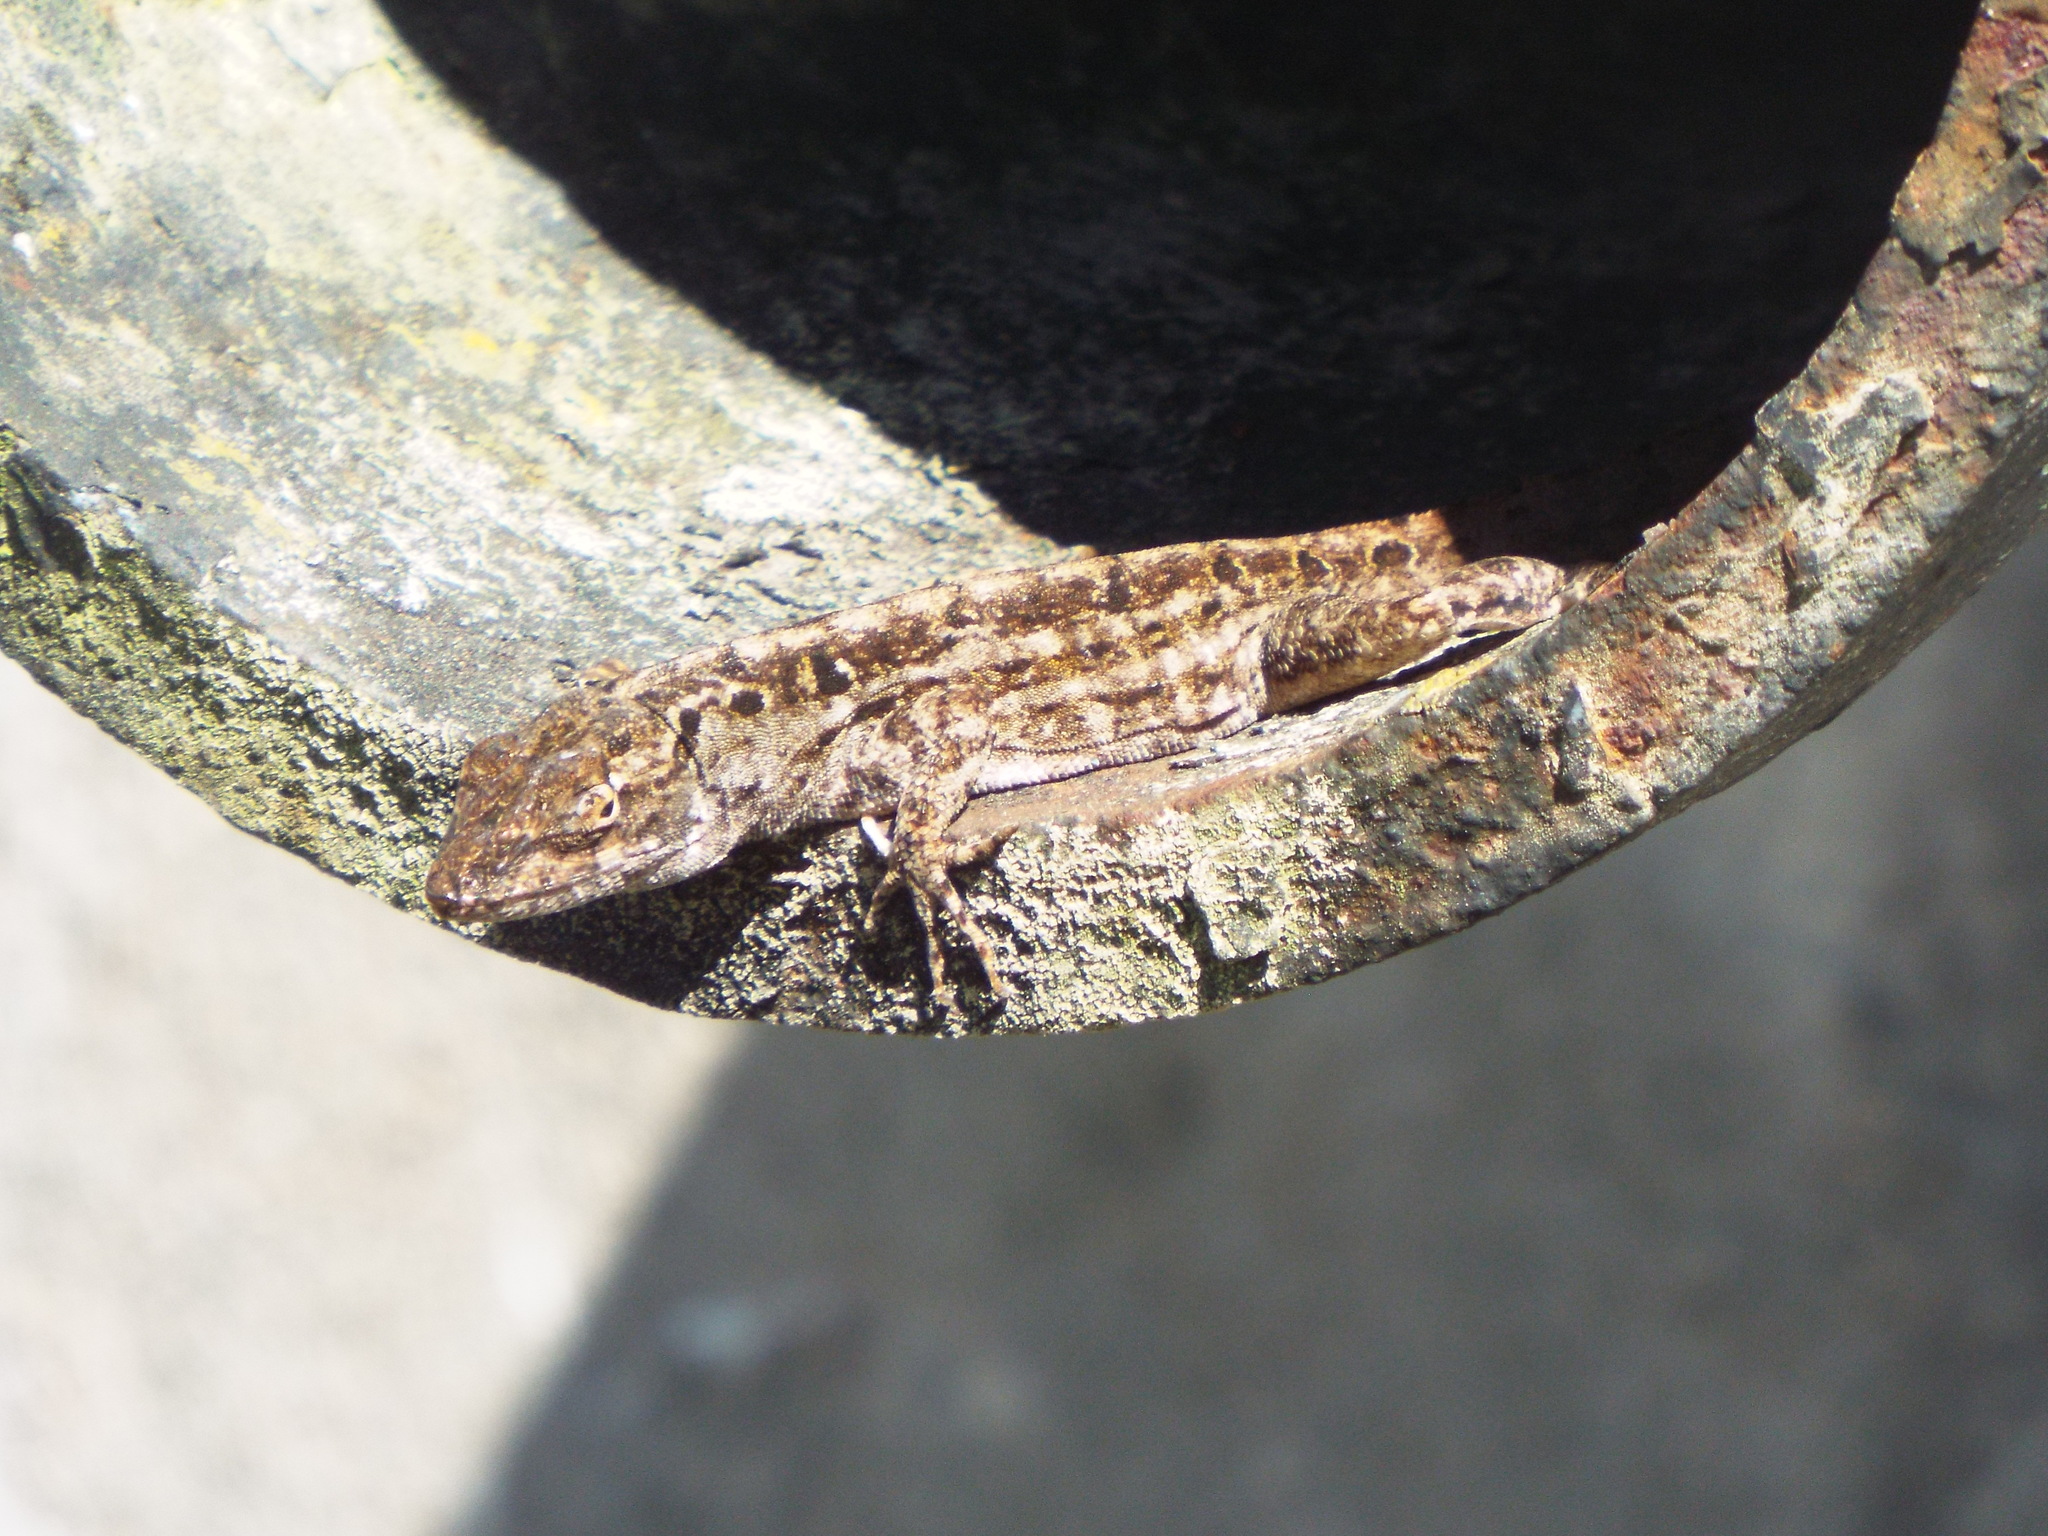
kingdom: Animalia
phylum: Chordata
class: Squamata
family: Dactyloidae
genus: Anolis
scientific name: Anolis sagrei
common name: Brown anole
